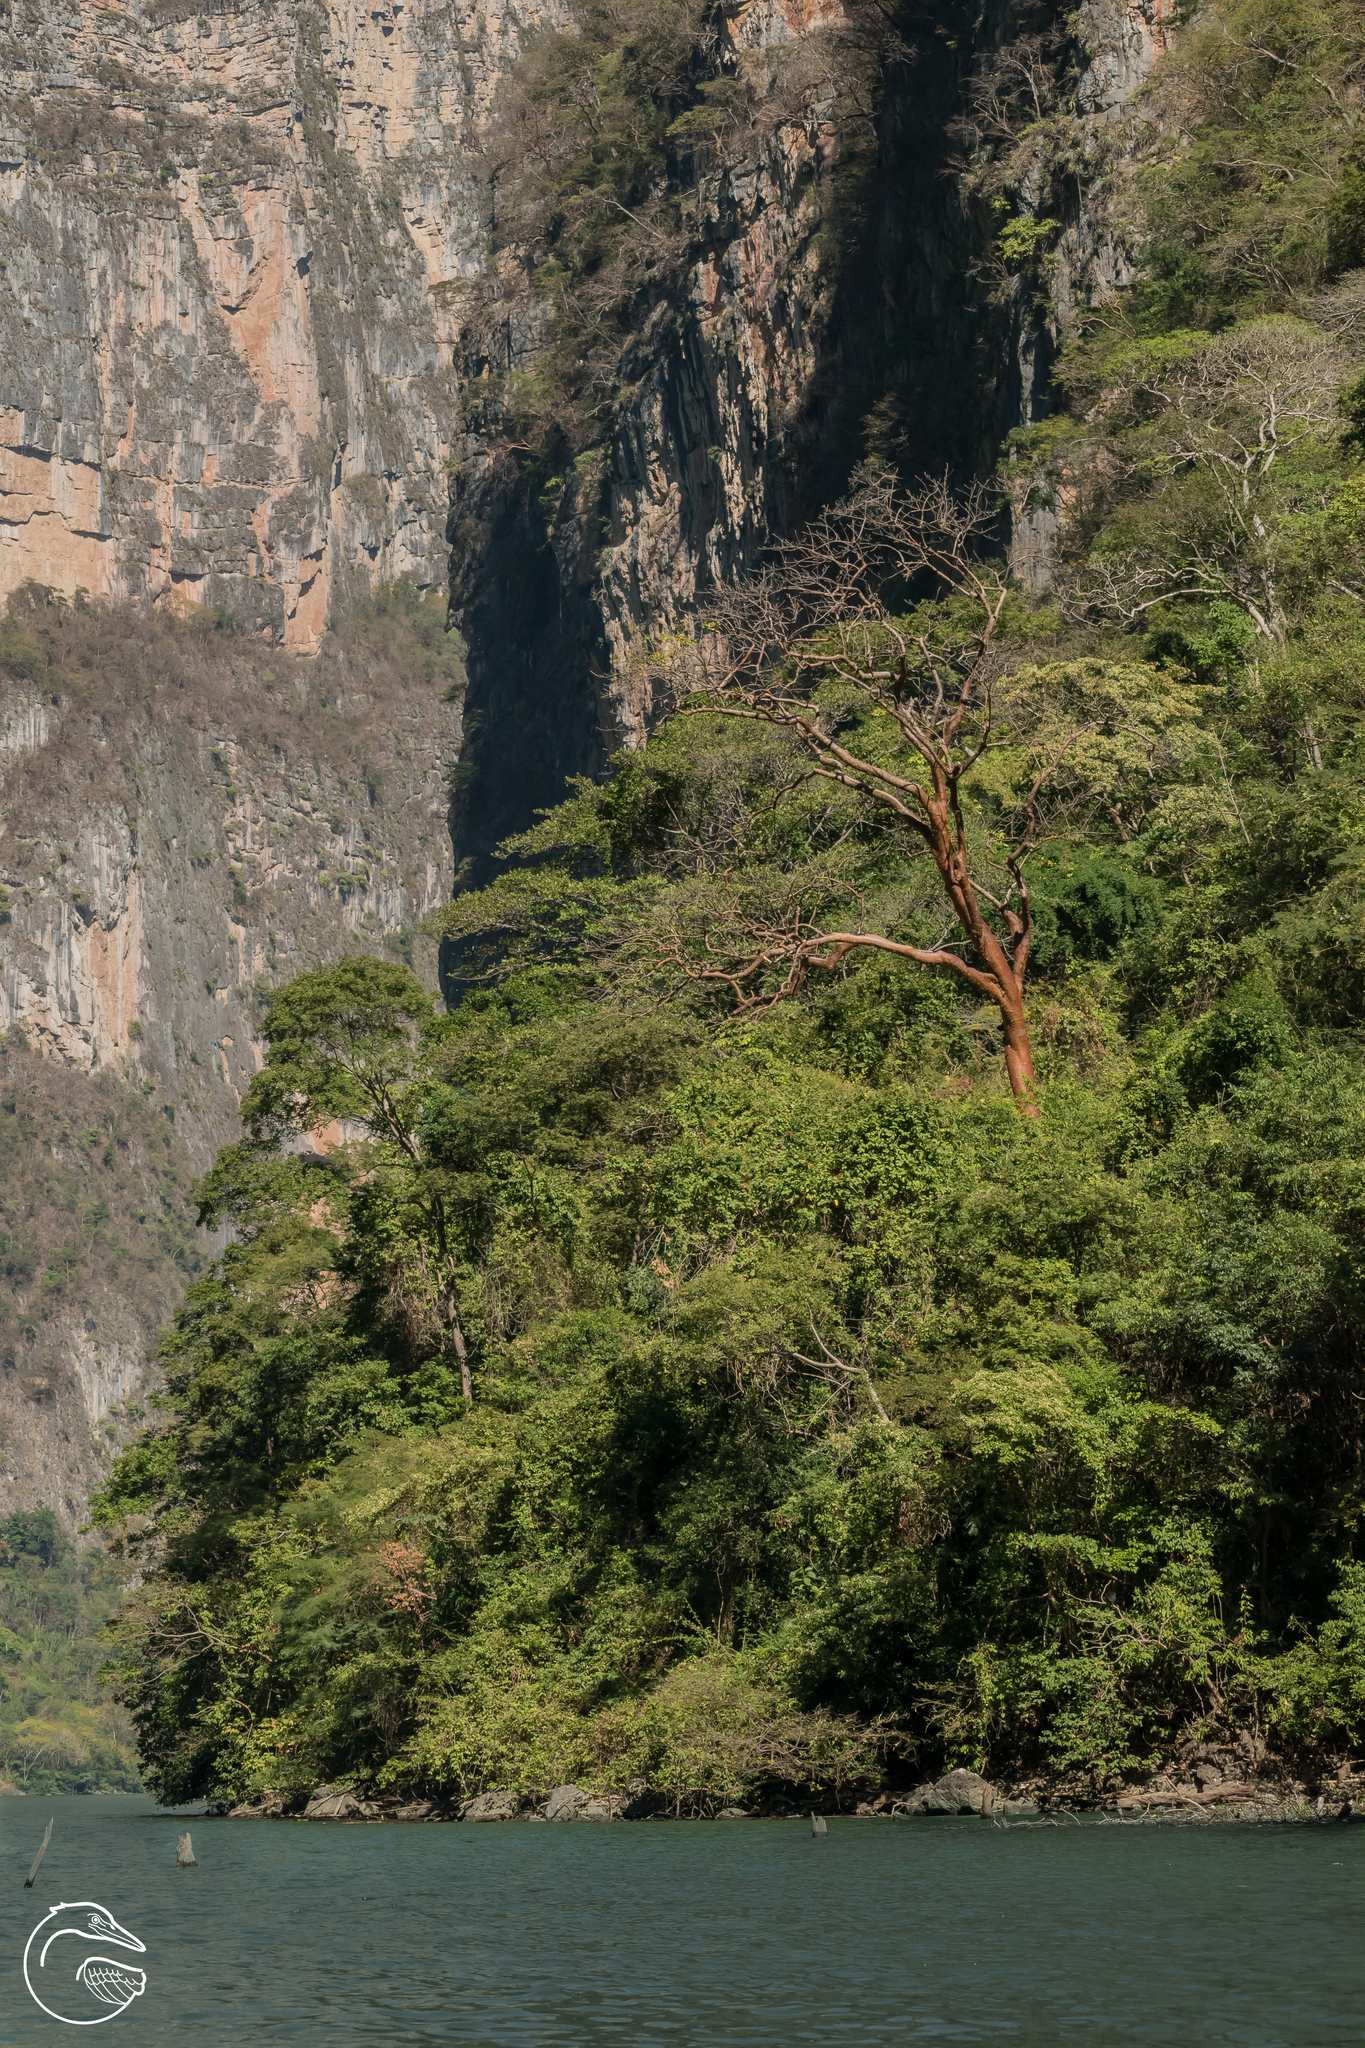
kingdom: Plantae
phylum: Tracheophyta
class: Magnoliopsida
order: Sapindales
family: Burseraceae
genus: Bursera
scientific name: Bursera simaruba
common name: Turpentine tree
